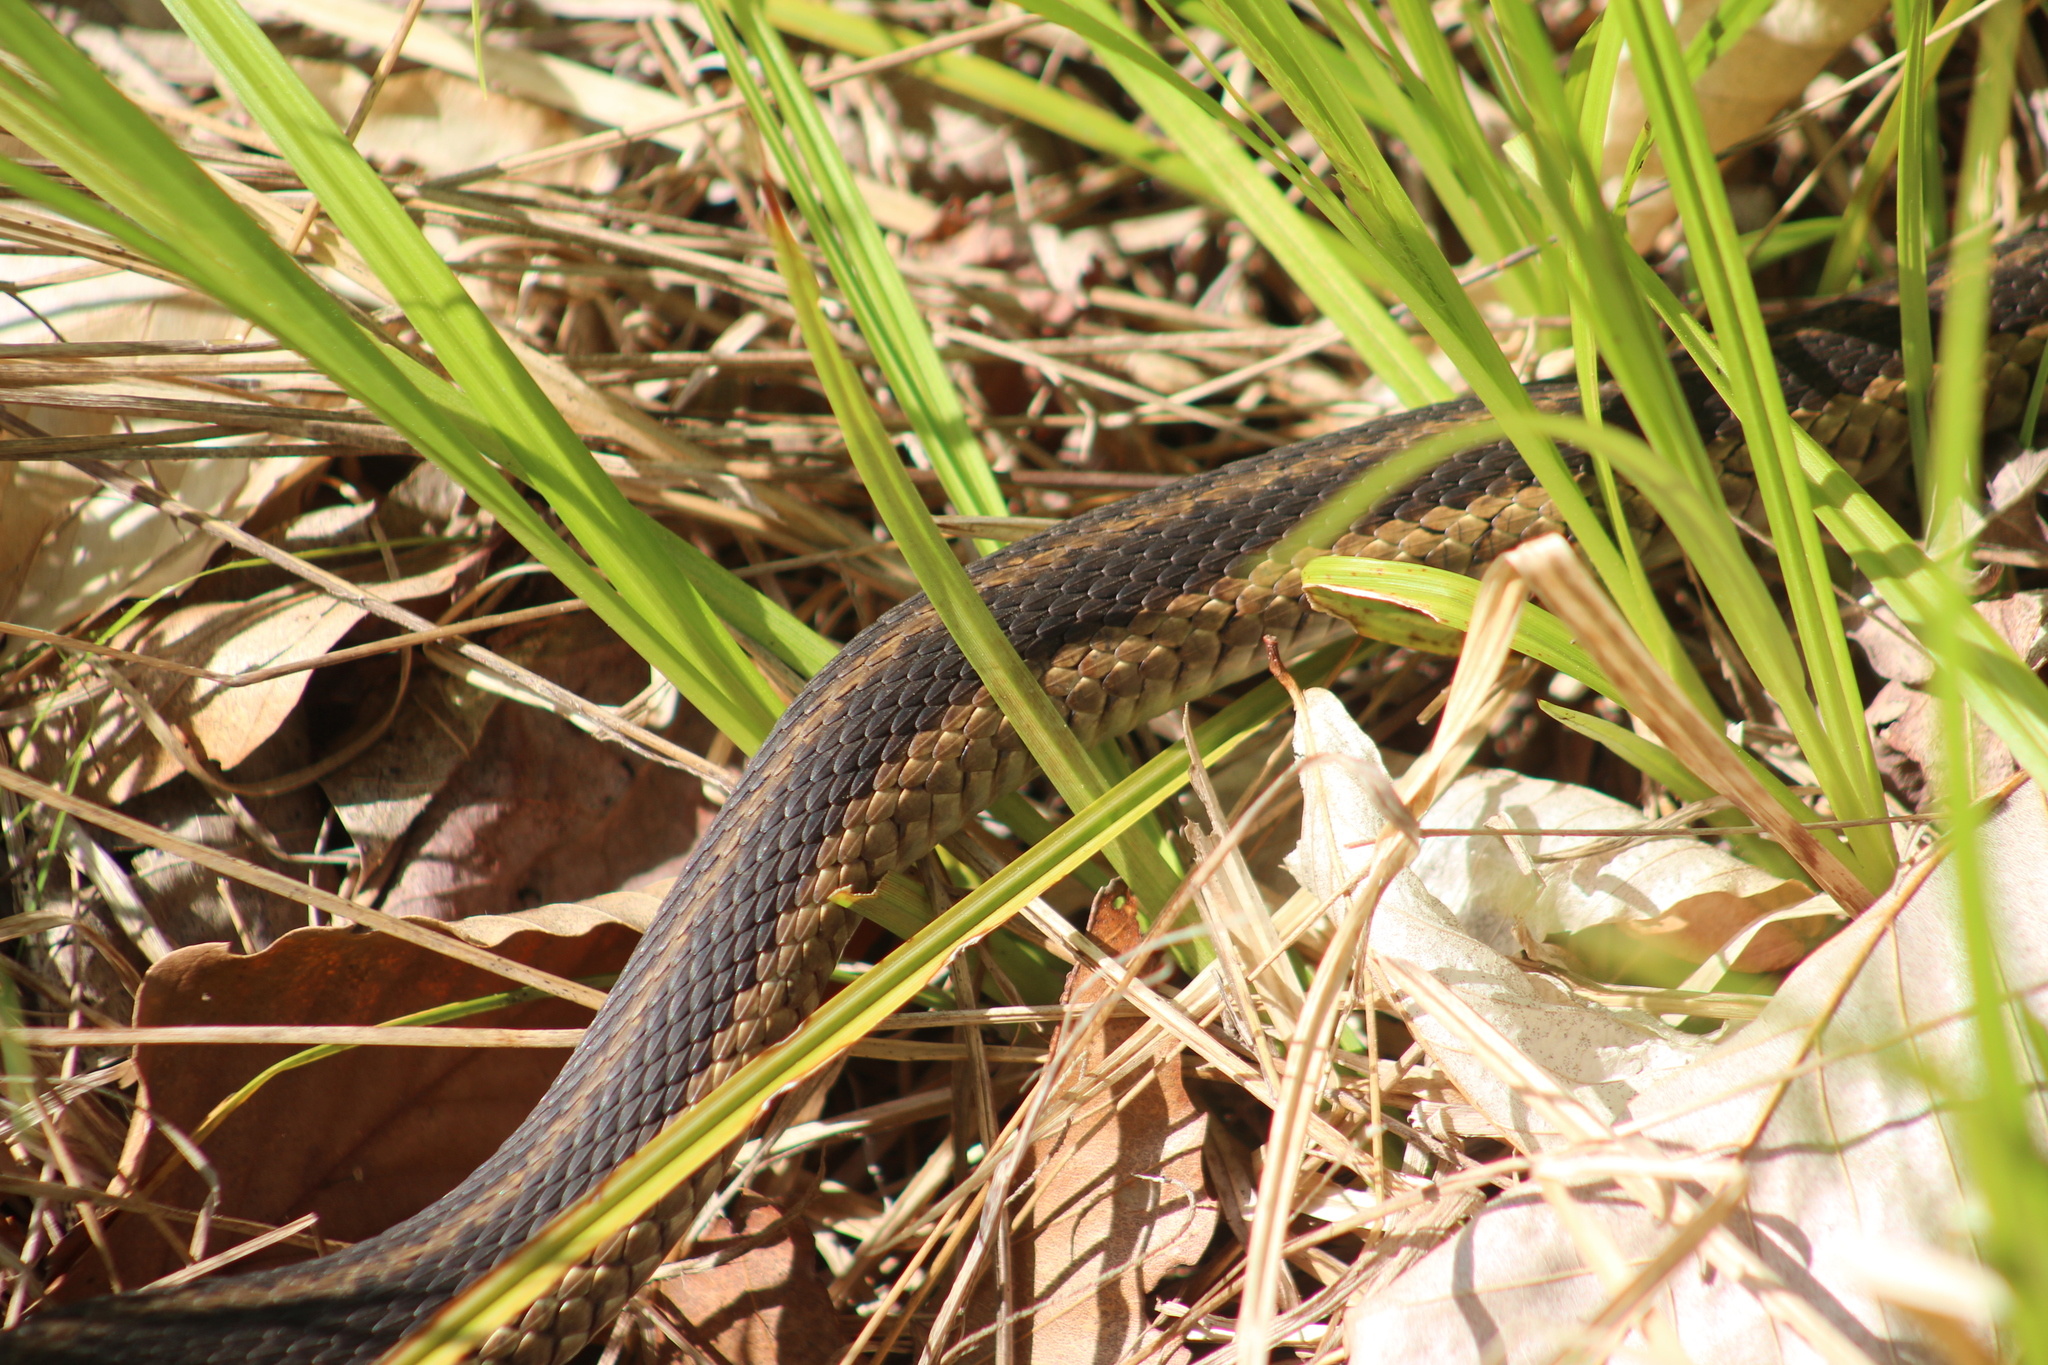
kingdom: Animalia
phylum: Chordata
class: Squamata
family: Colubridae
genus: Thamnophis
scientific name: Thamnophis sirtalis
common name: Common garter snake
